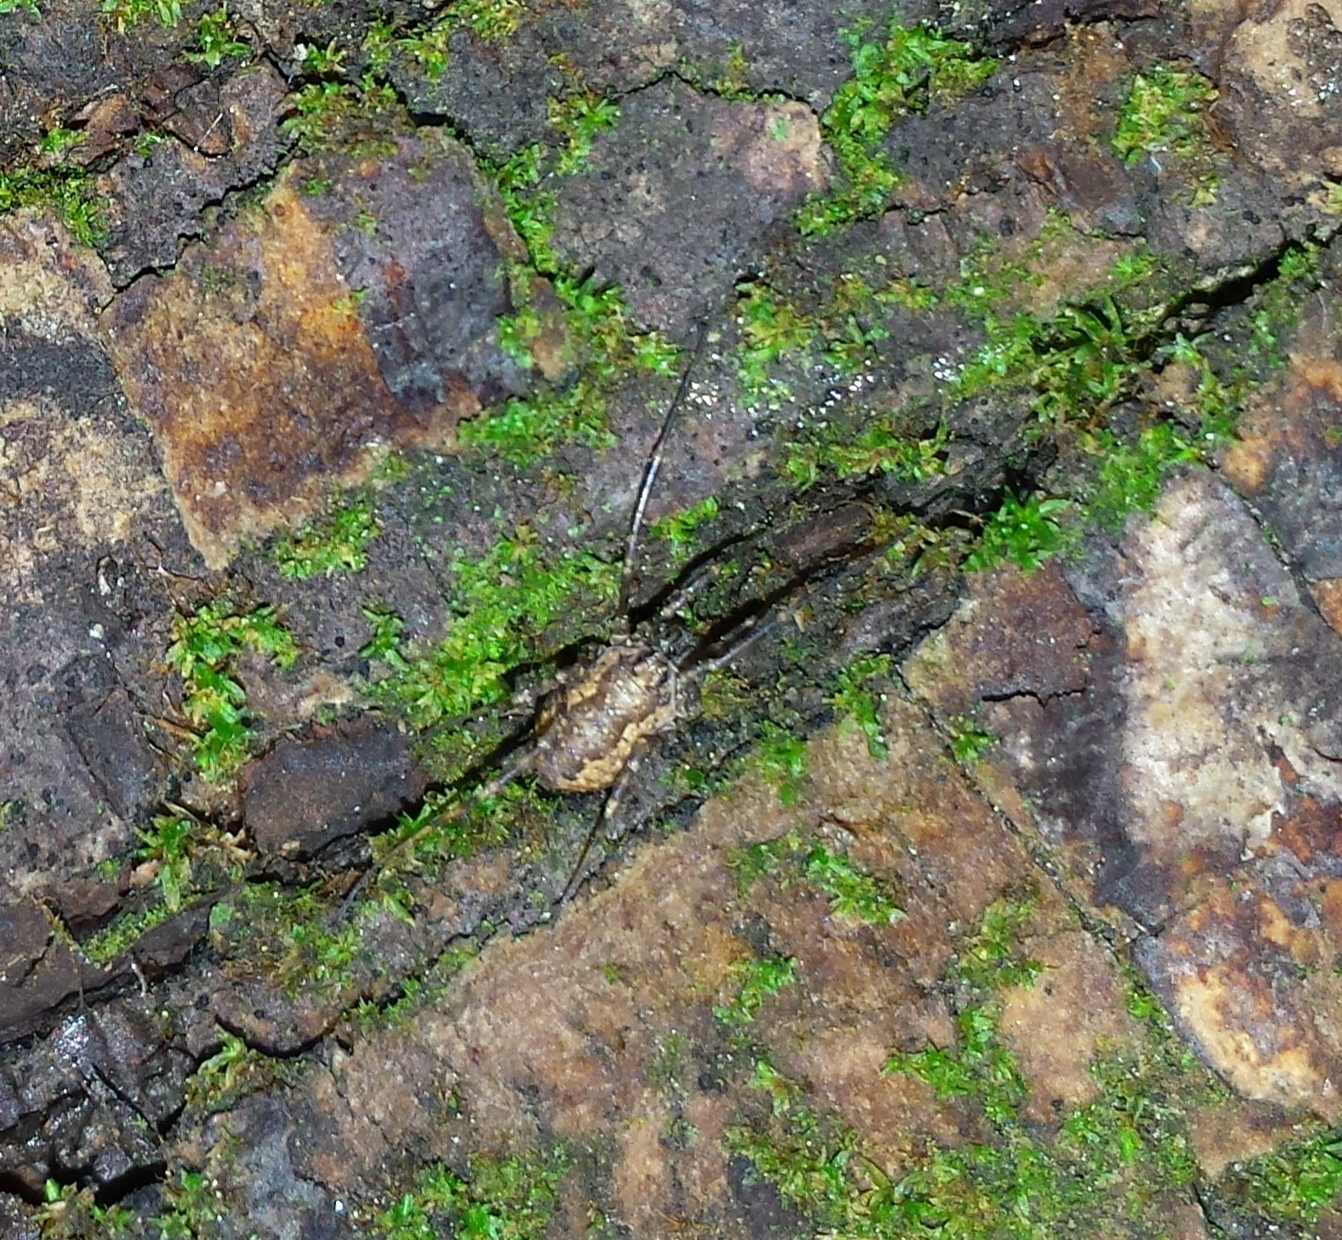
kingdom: Animalia
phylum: Arthropoda
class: Arachnida
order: Opiliones
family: Phalangiidae
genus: Rilaena
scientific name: Rilaena triangularis
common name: Spring harvestman
